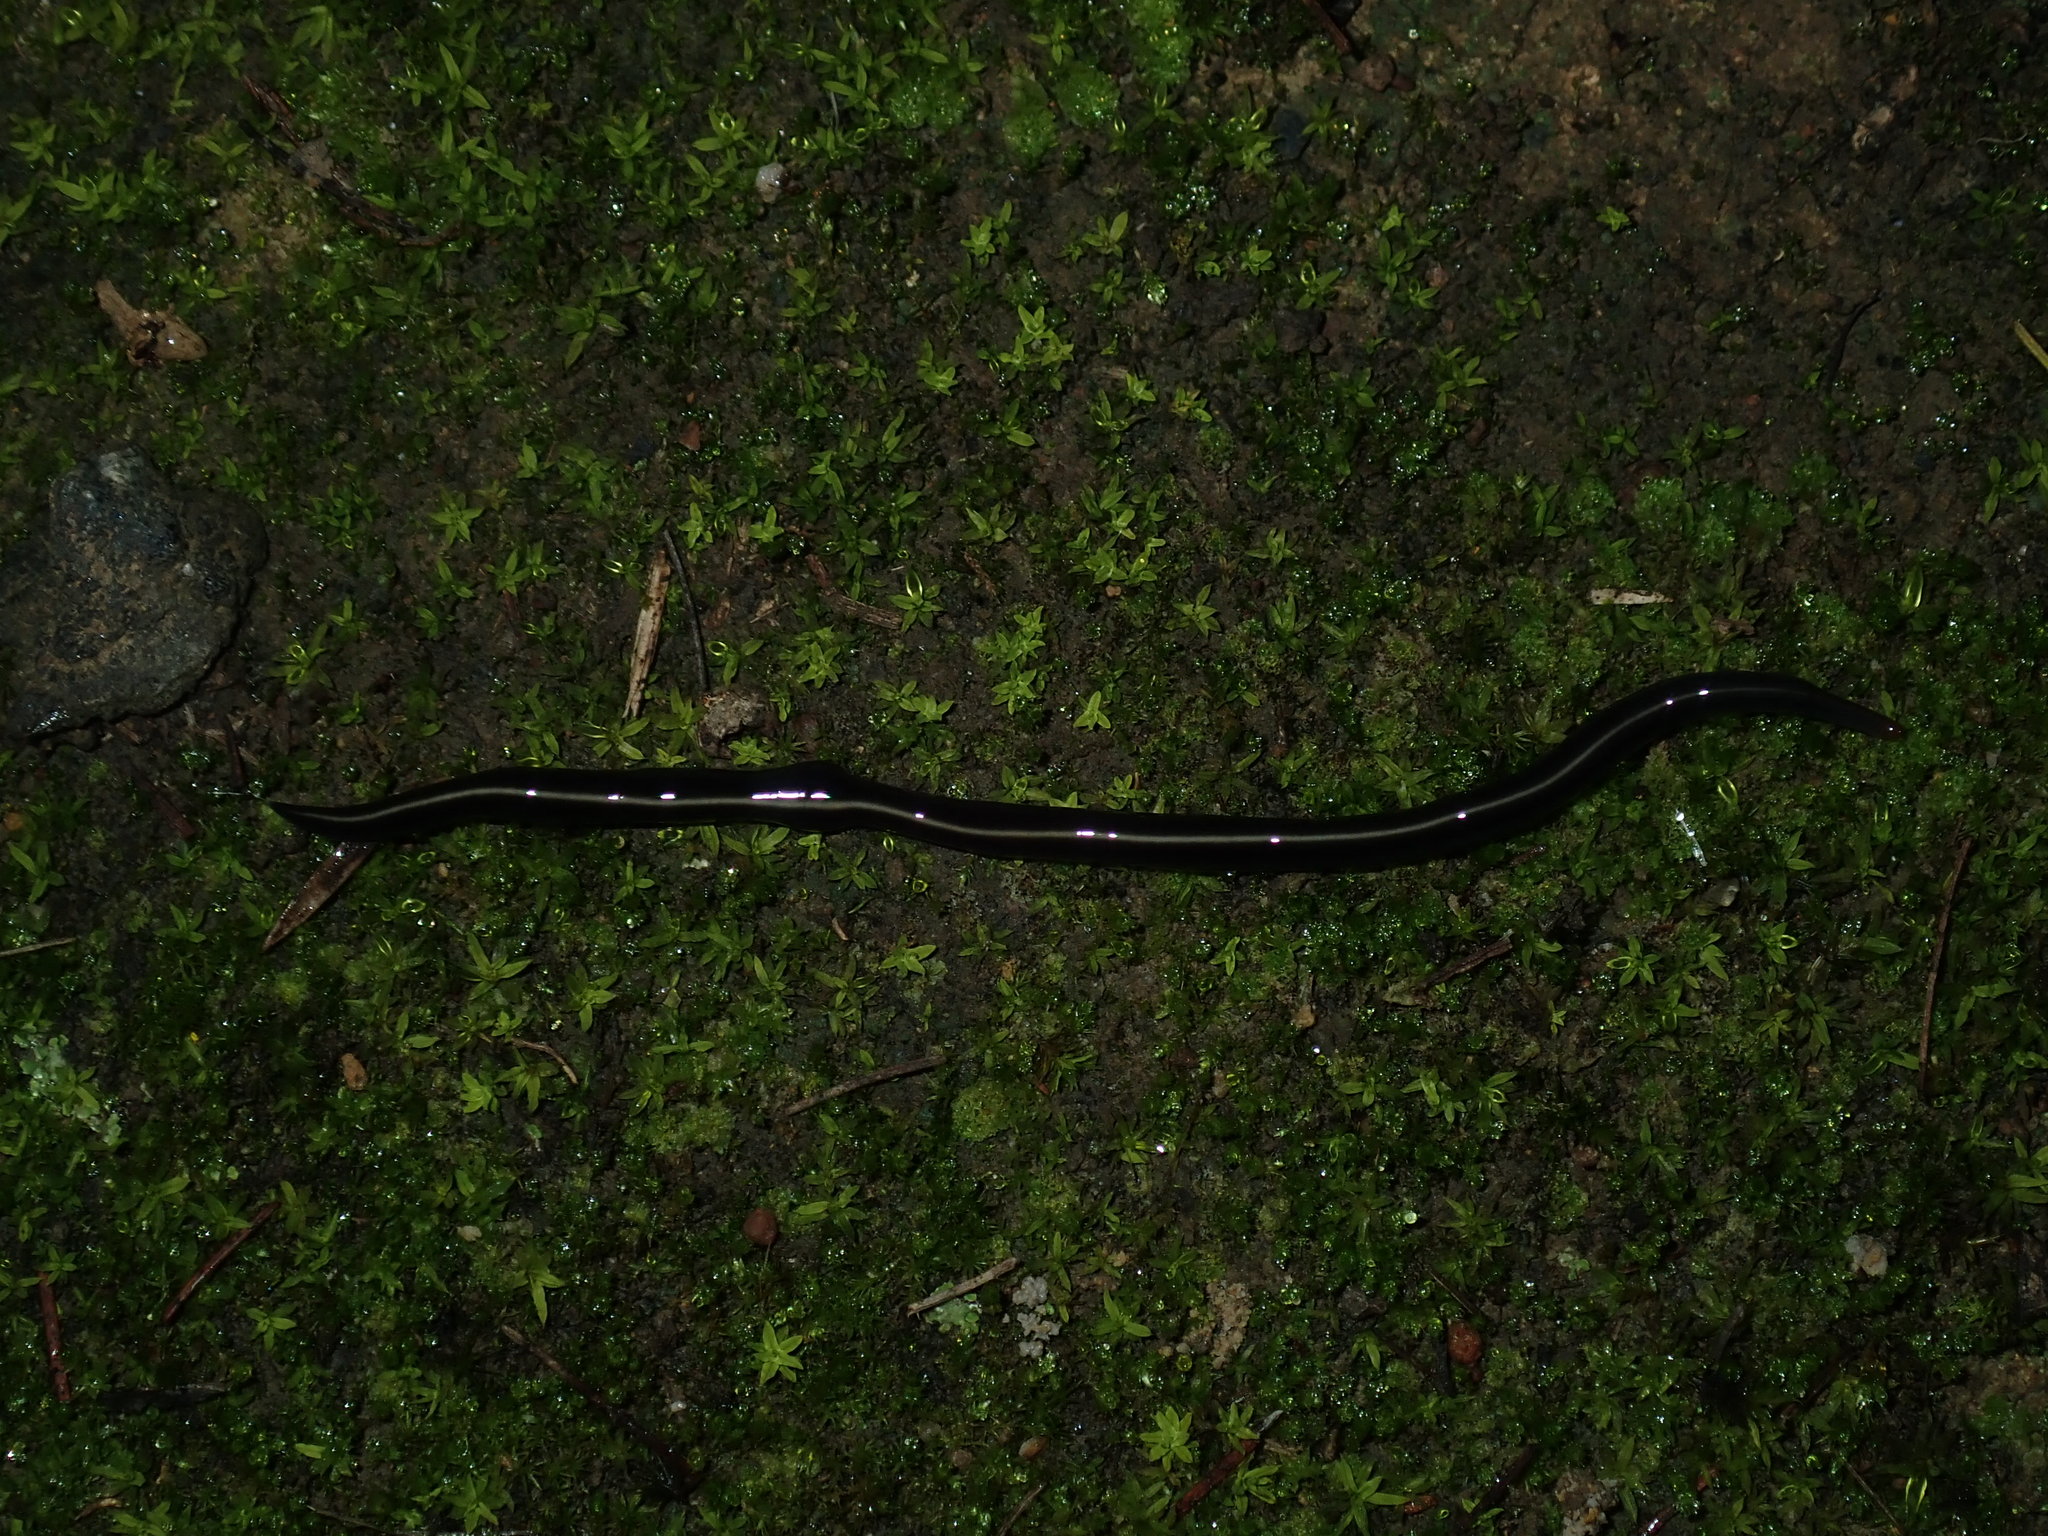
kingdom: Animalia
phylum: Platyhelminthes
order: Tricladida
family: Geoplanidae
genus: Caenoplana
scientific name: Caenoplana coerulea
